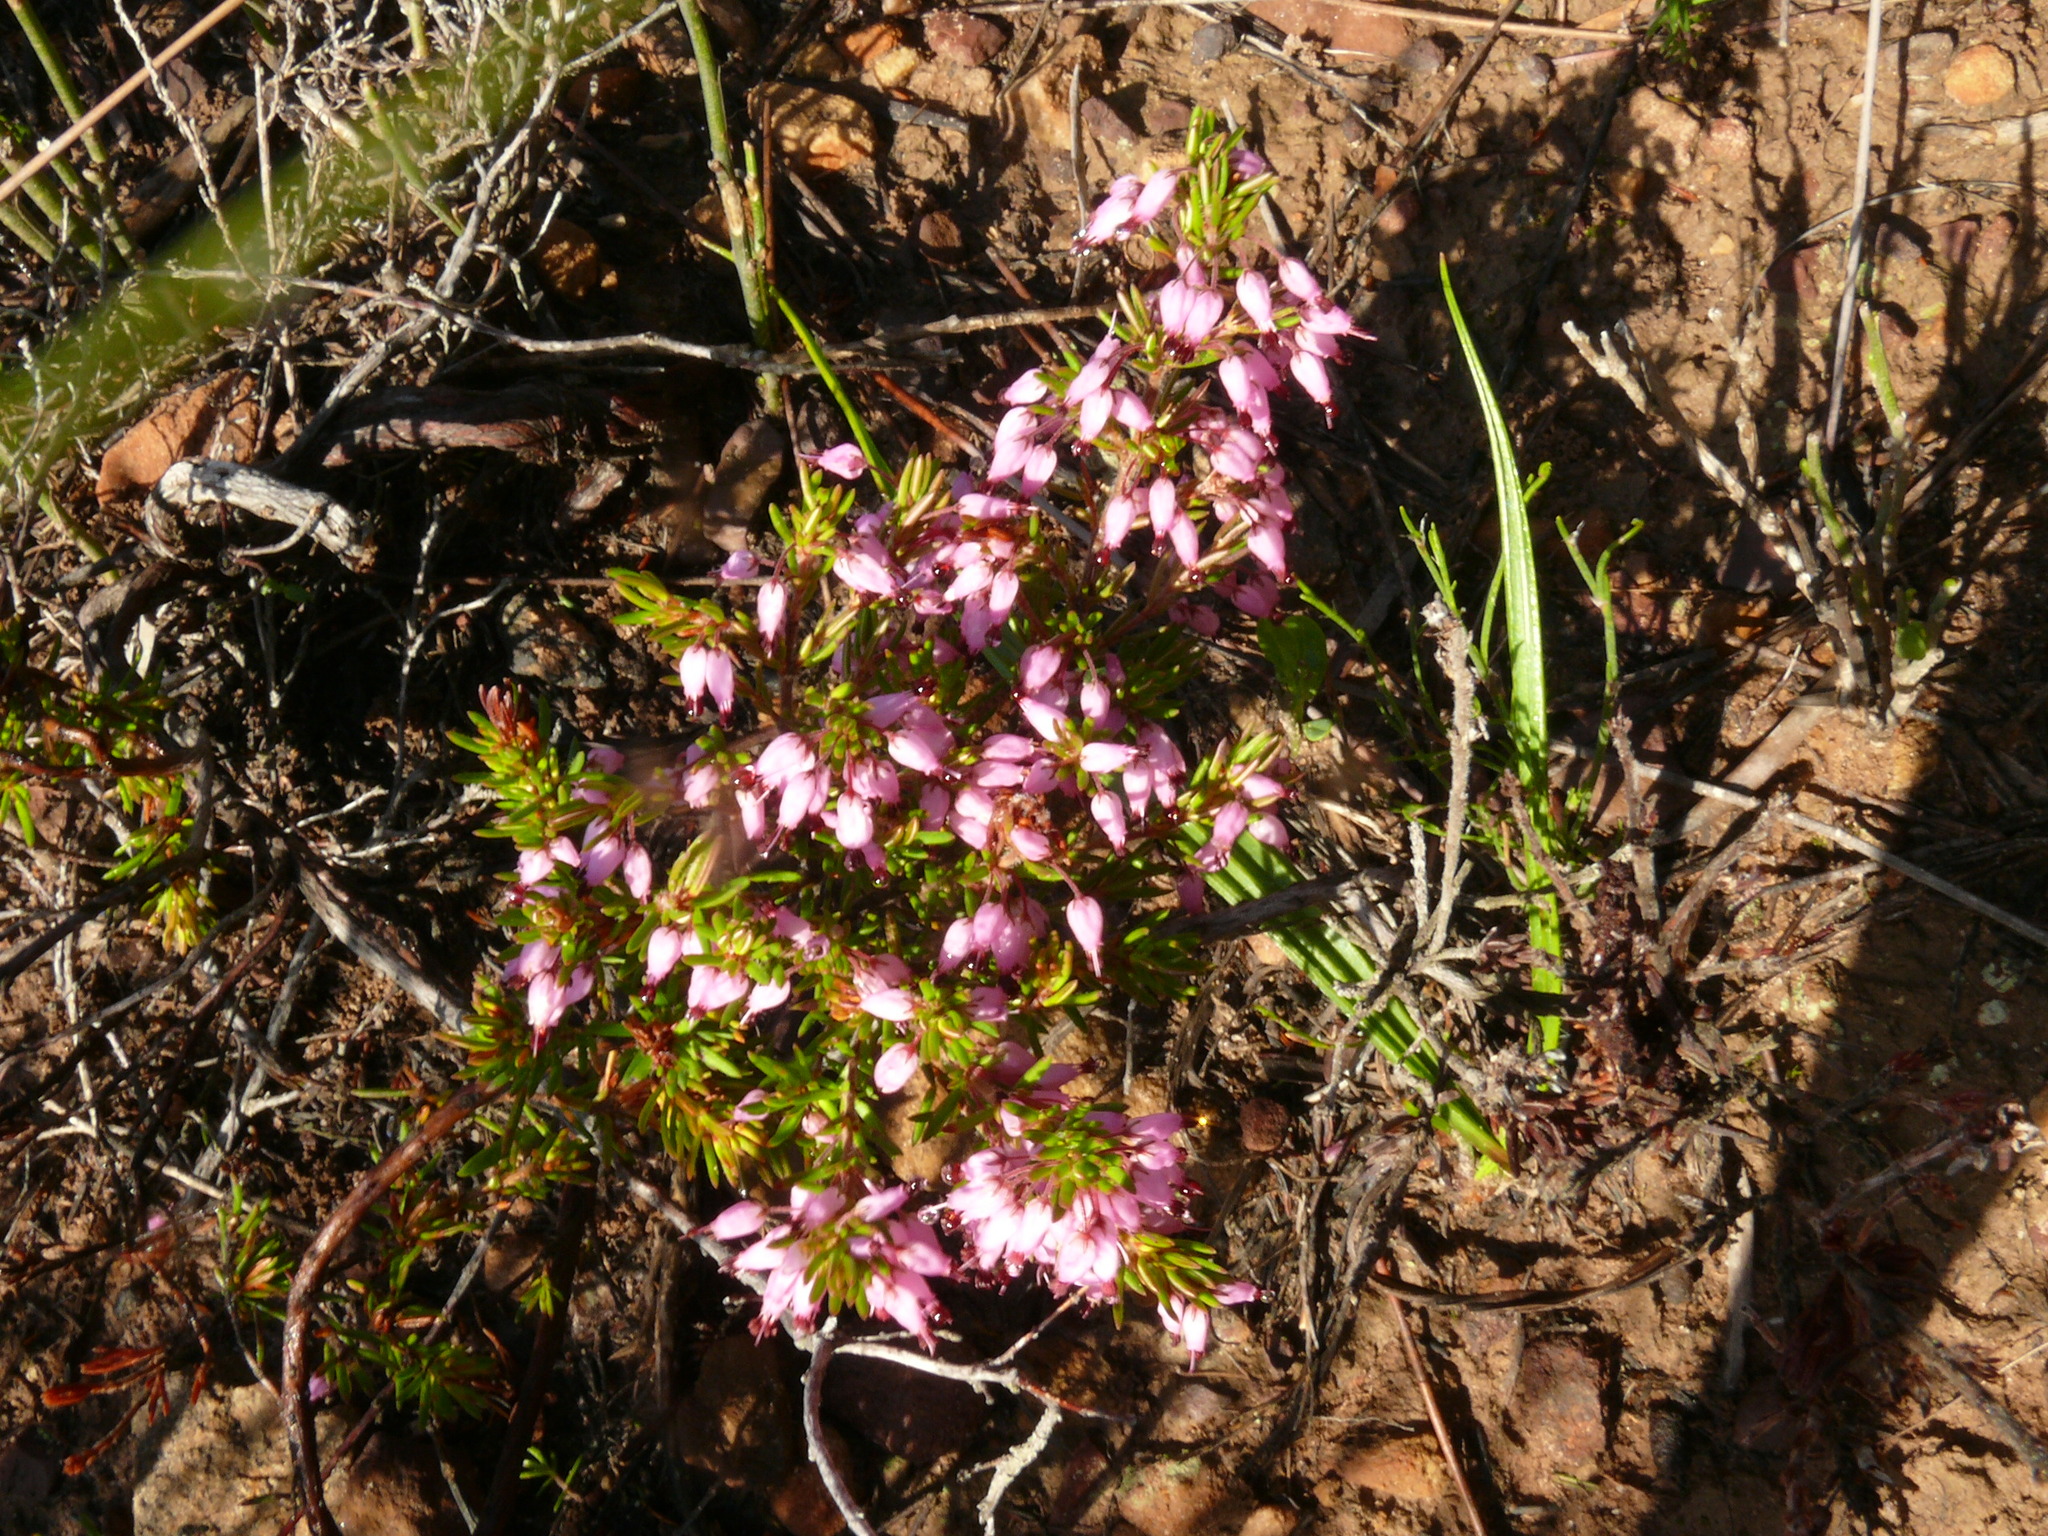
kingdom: Plantae
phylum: Tracheophyta
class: Magnoliopsida
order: Ericales
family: Ericaceae
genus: Erica
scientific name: Erica nudiflora
